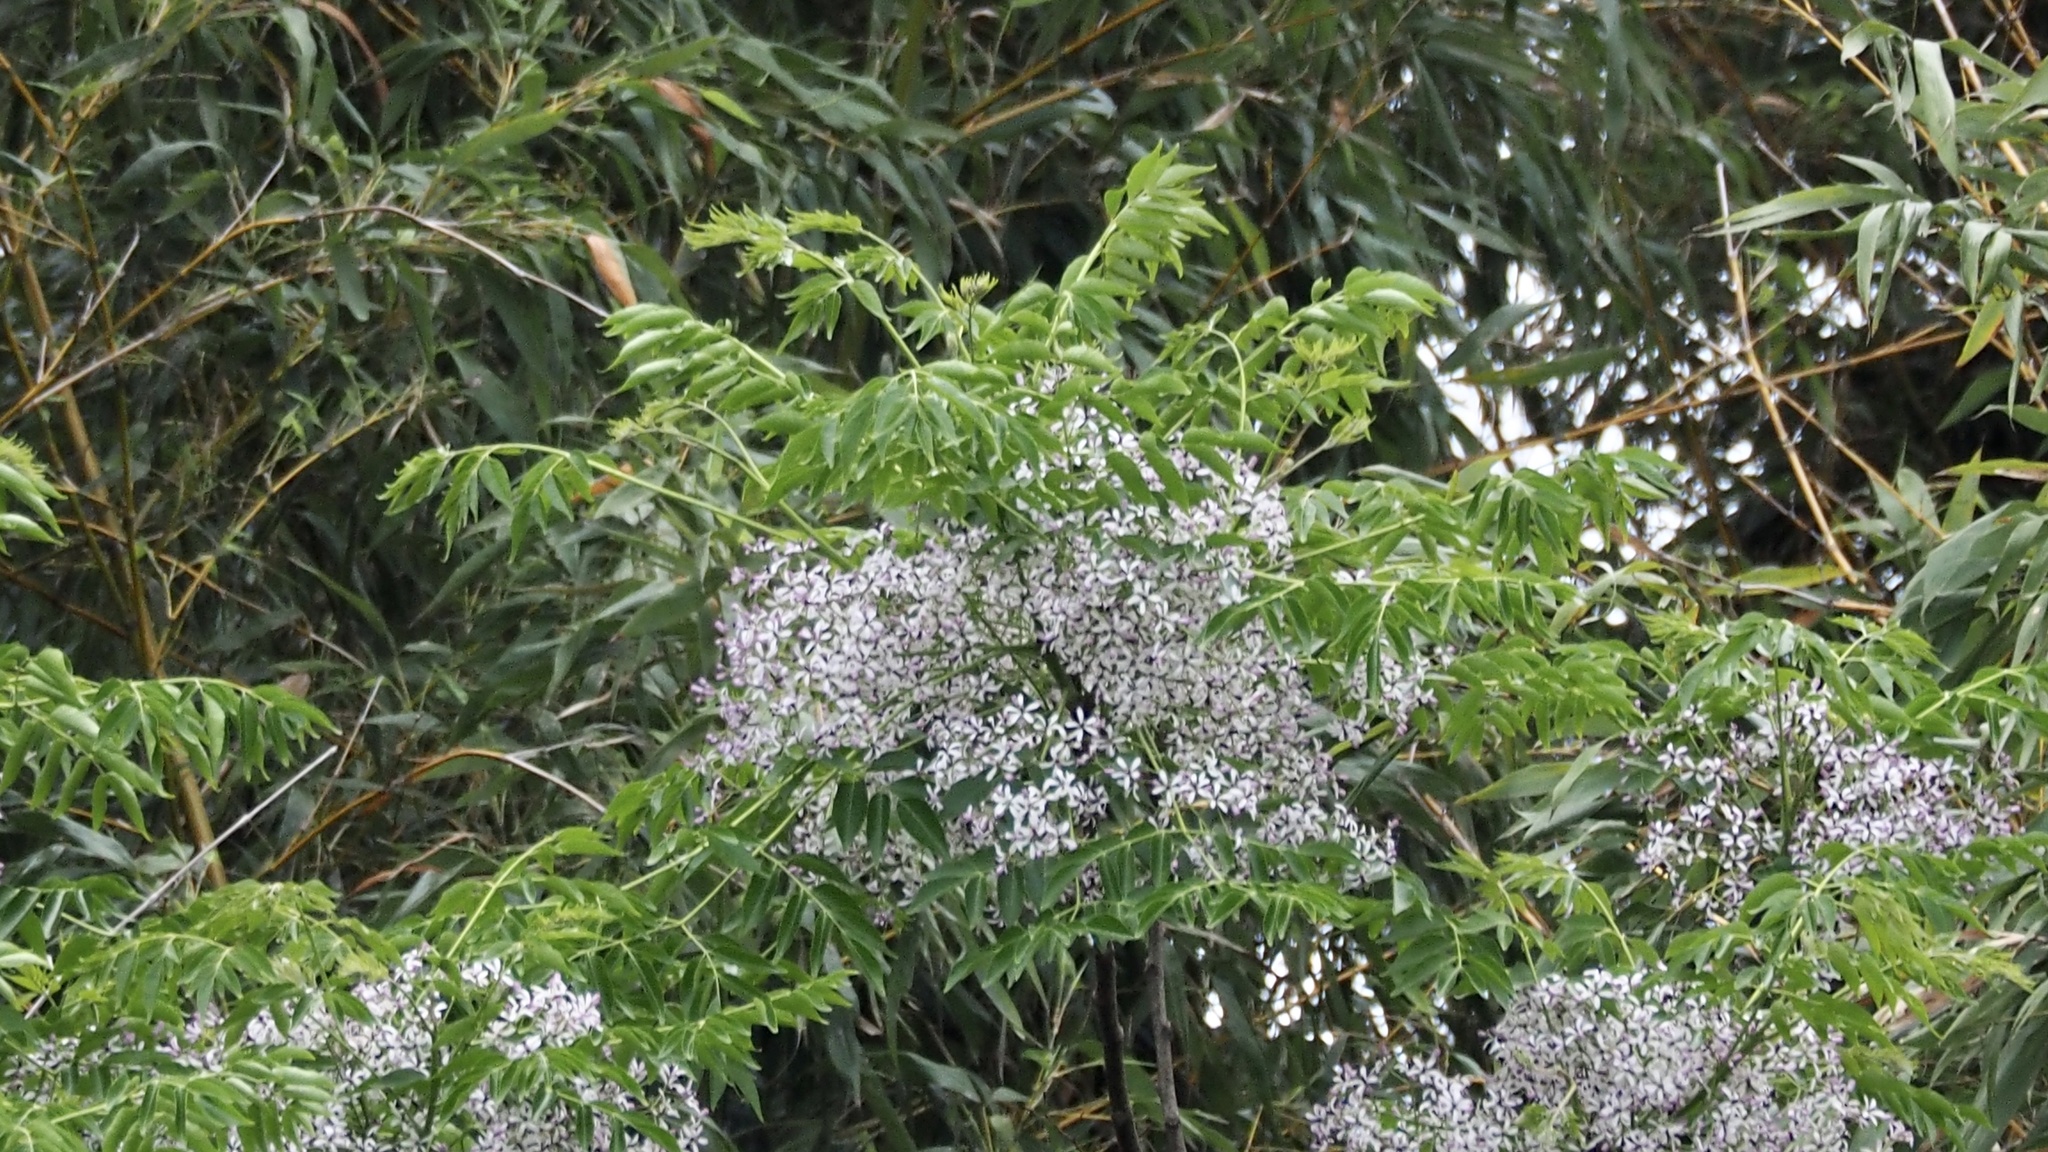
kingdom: Plantae
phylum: Tracheophyta
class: Magnoliopsida
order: Sapindales
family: Meliaceae
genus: Melia
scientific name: Melia azedarach
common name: Chinaberrytree
